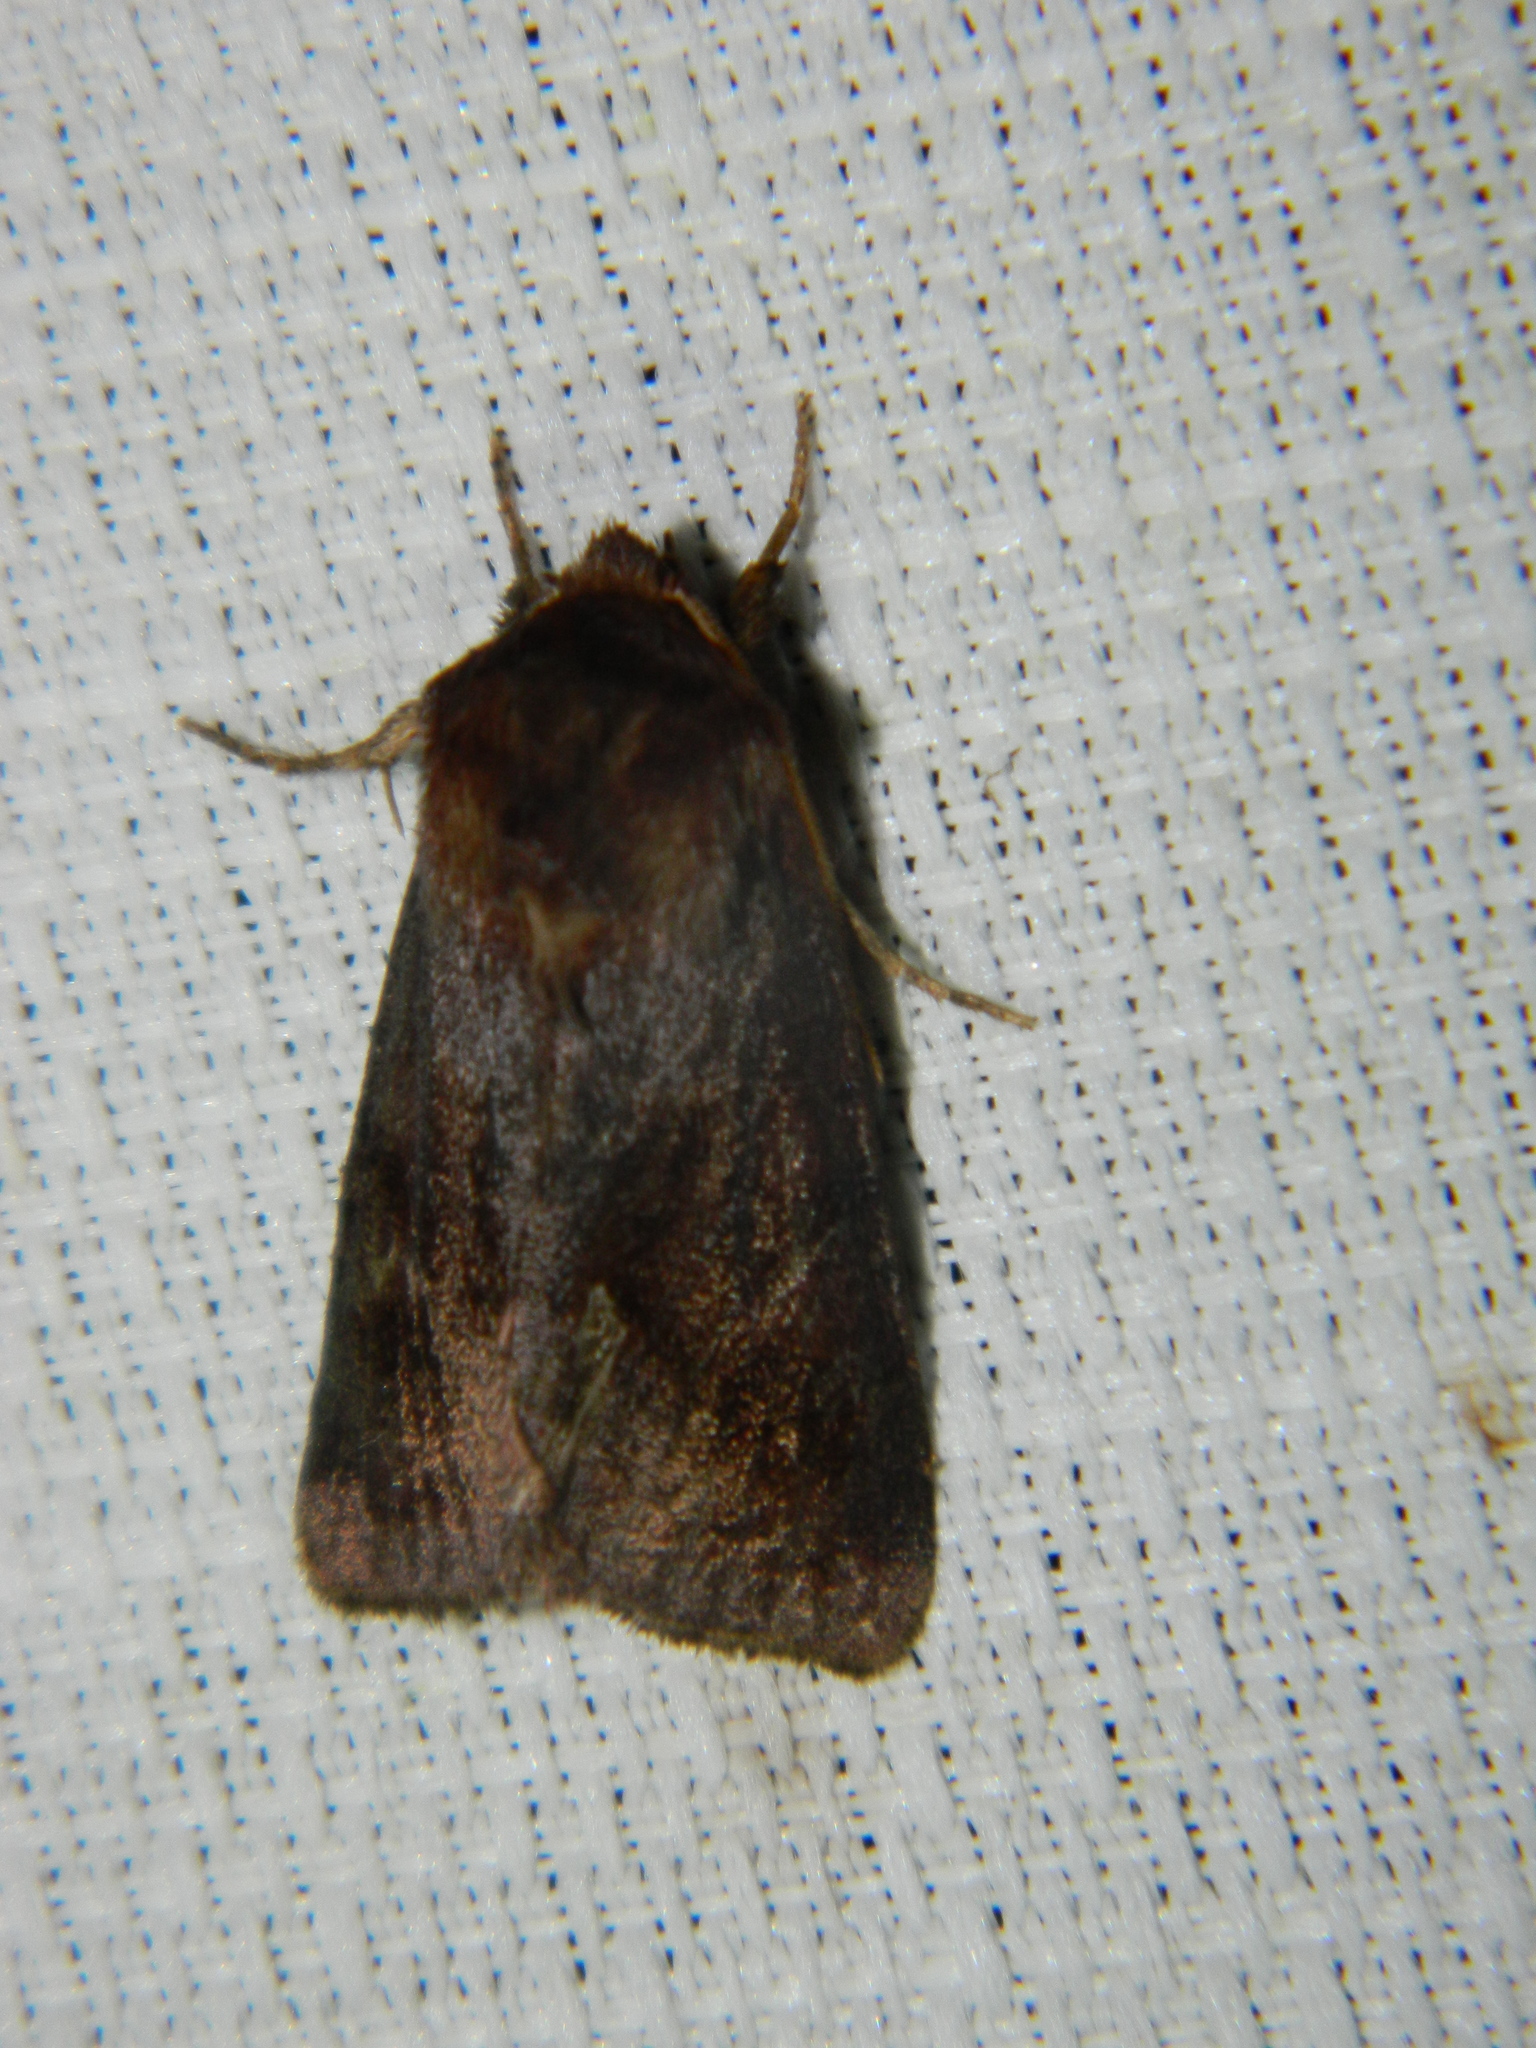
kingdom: Animalia
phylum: Arthropoda
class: Insecta
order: Lepidoptera
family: Noctuidae
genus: Nephelodes
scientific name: Nephelodes minians
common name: Bronzed cutworm
